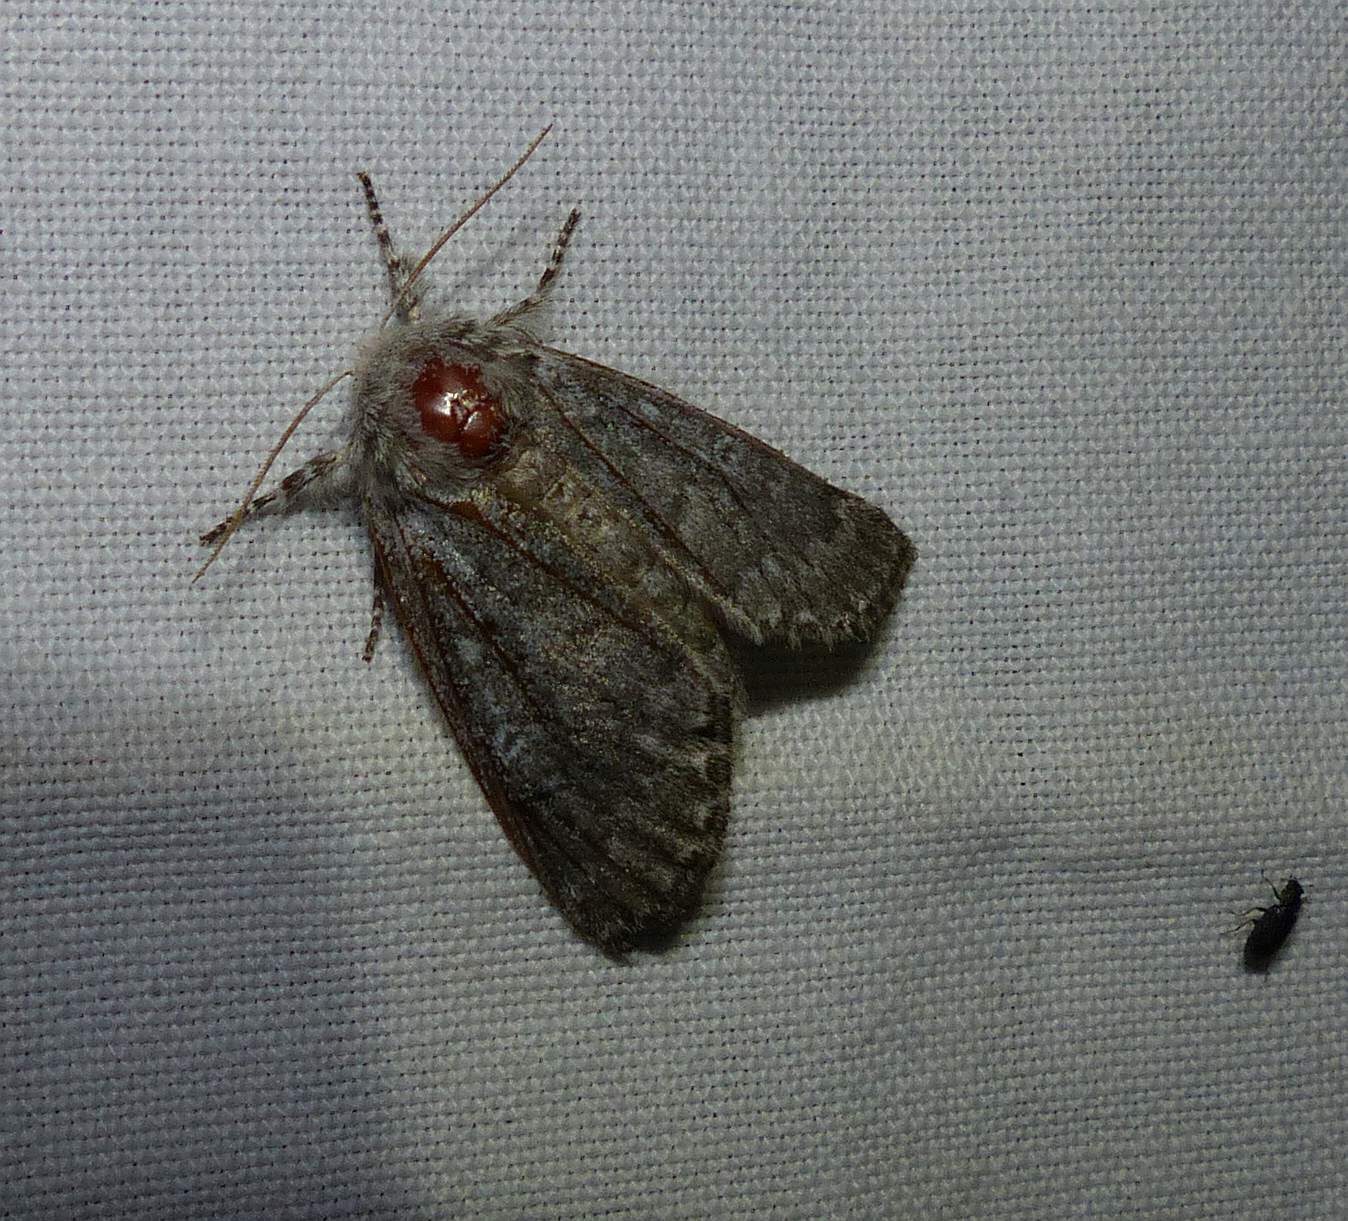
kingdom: Animalia
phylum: Arthropoda
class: Insecta
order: Lepidoptera
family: Noctuidae
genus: Colocasia
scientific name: Colocasia propinquilinea
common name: Close-banded demas
